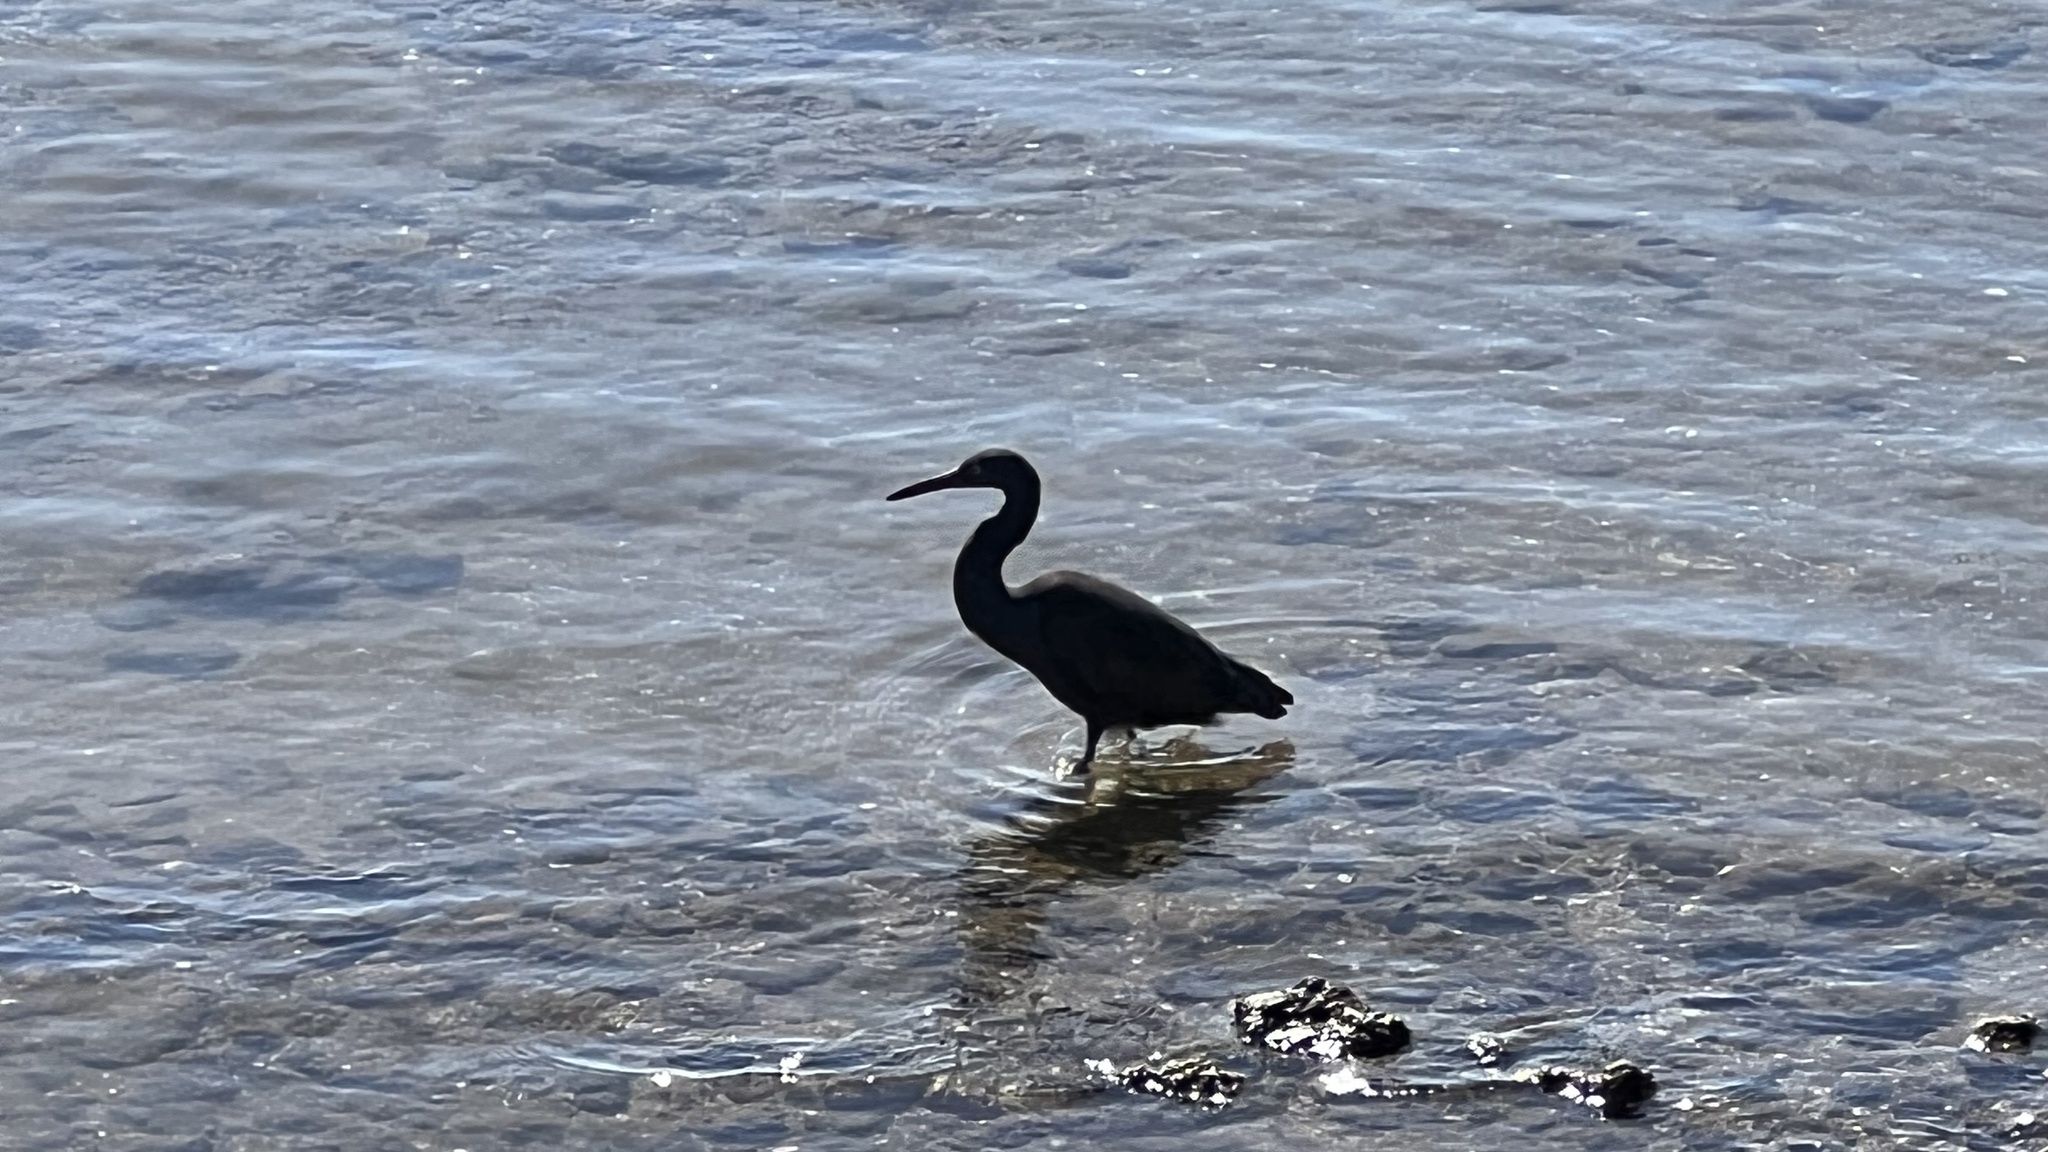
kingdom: Animalia
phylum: Chordata
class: Aves
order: Pelecaniformes
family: Ardeidae
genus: Egretta
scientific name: Egretta sacra
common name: Pacific reef heron
